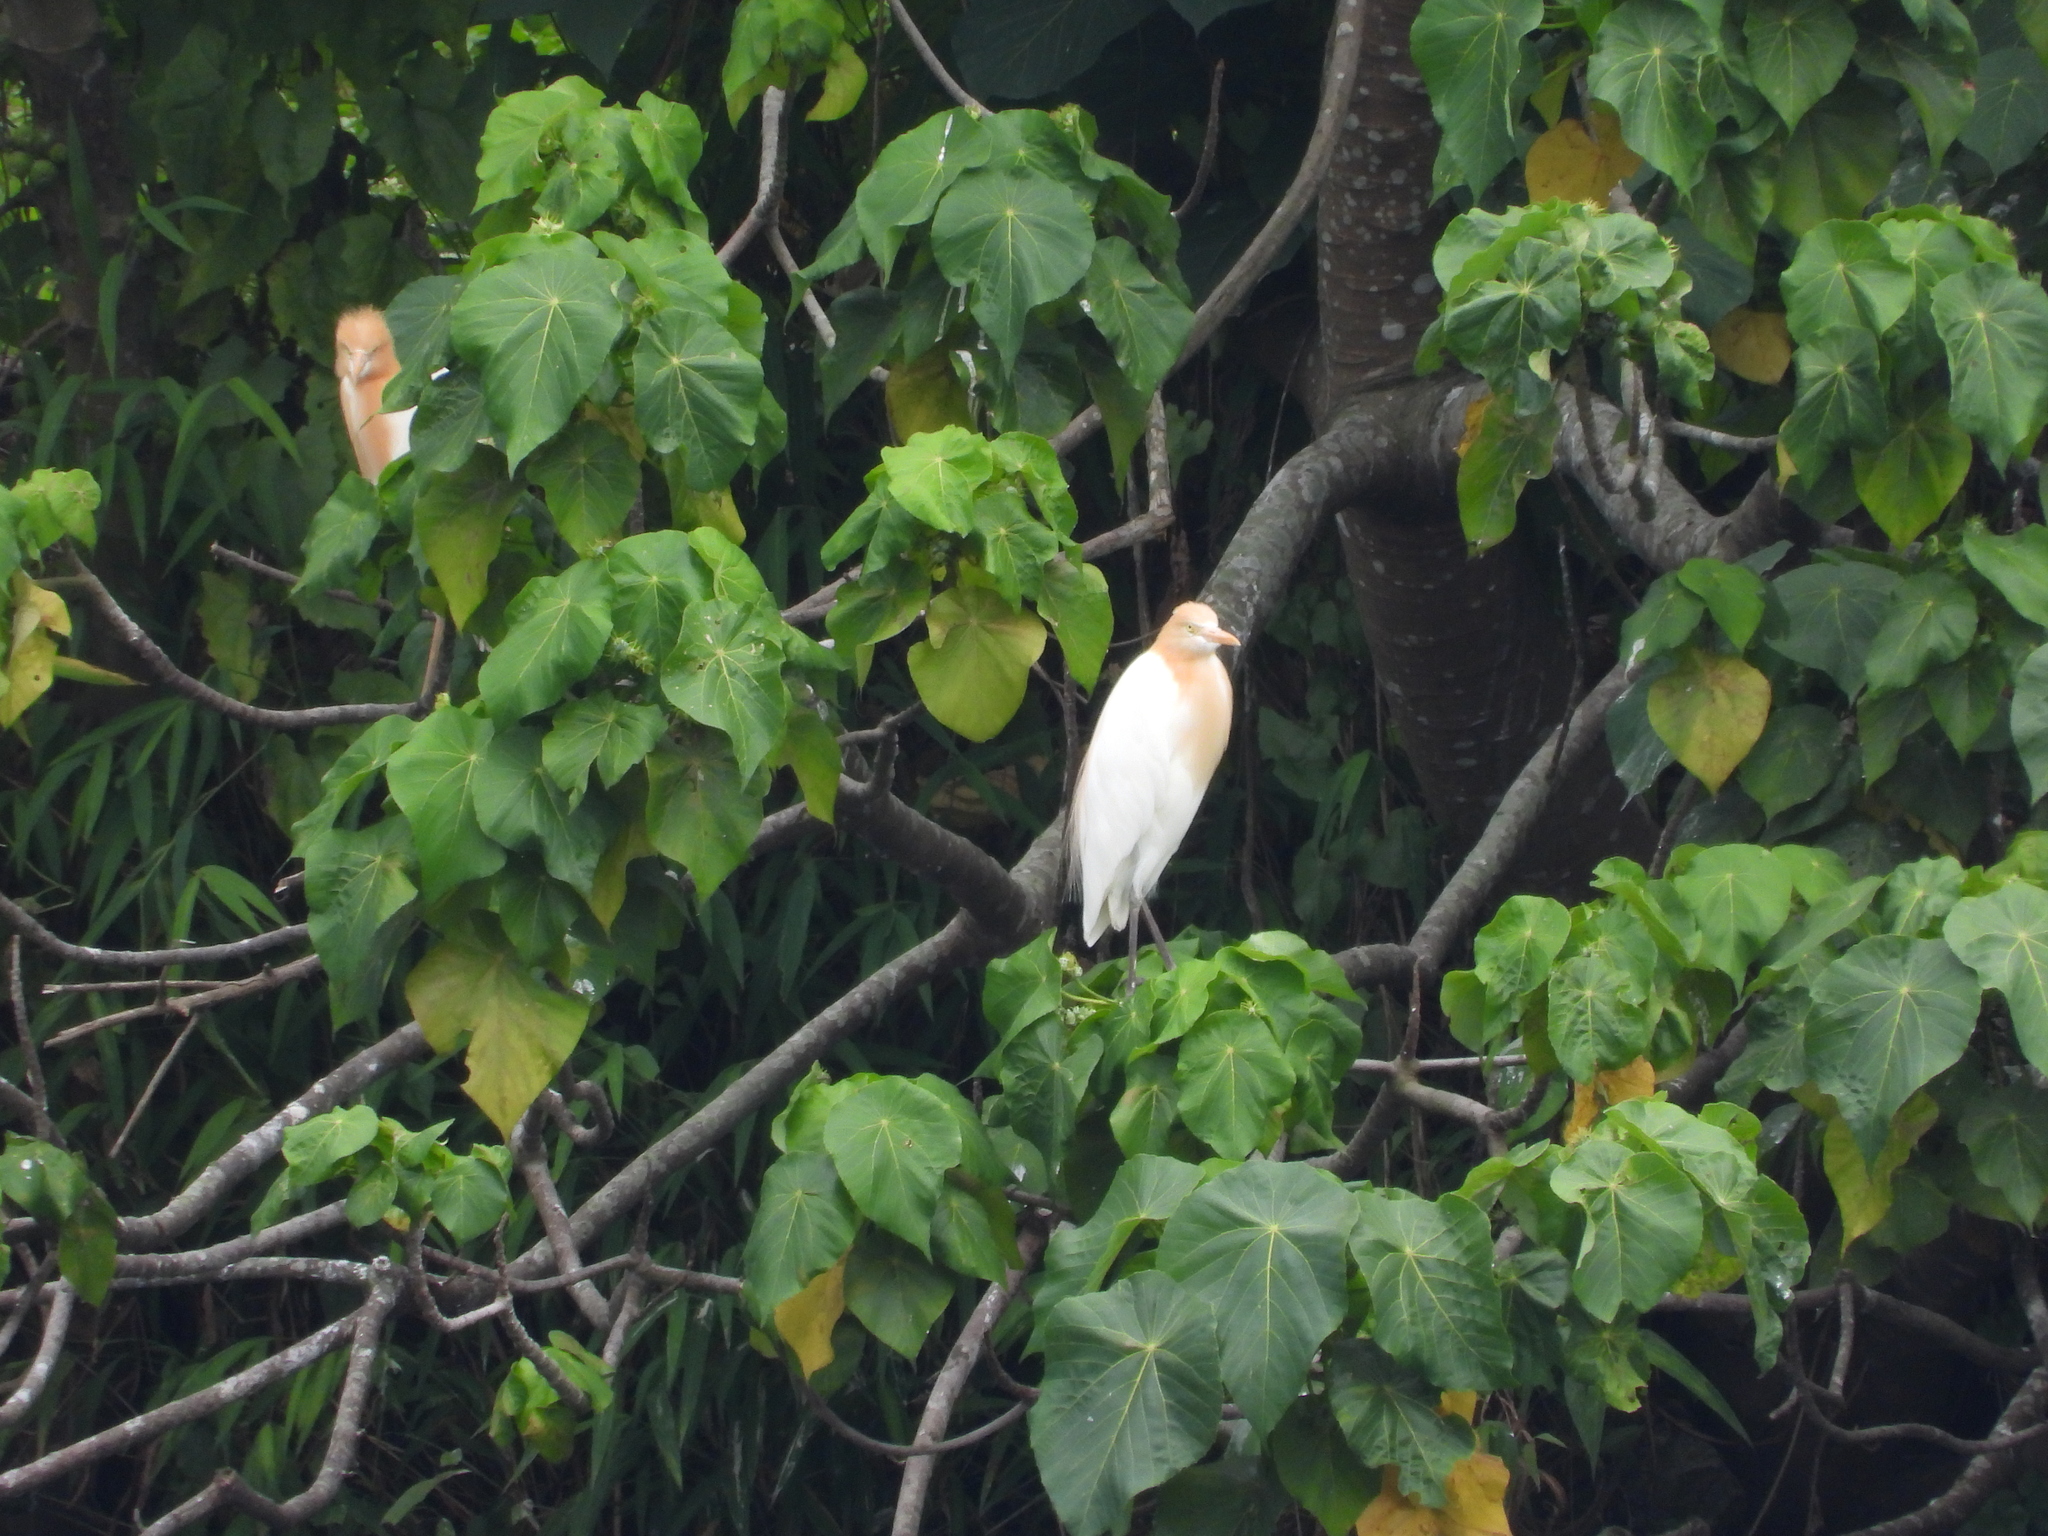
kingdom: Animalia
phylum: Chordata
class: Aves
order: Pelecaniformes
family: Ardeidae
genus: Bubulcus
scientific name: Bubulcus coromandus
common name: Eastern cattle egret
